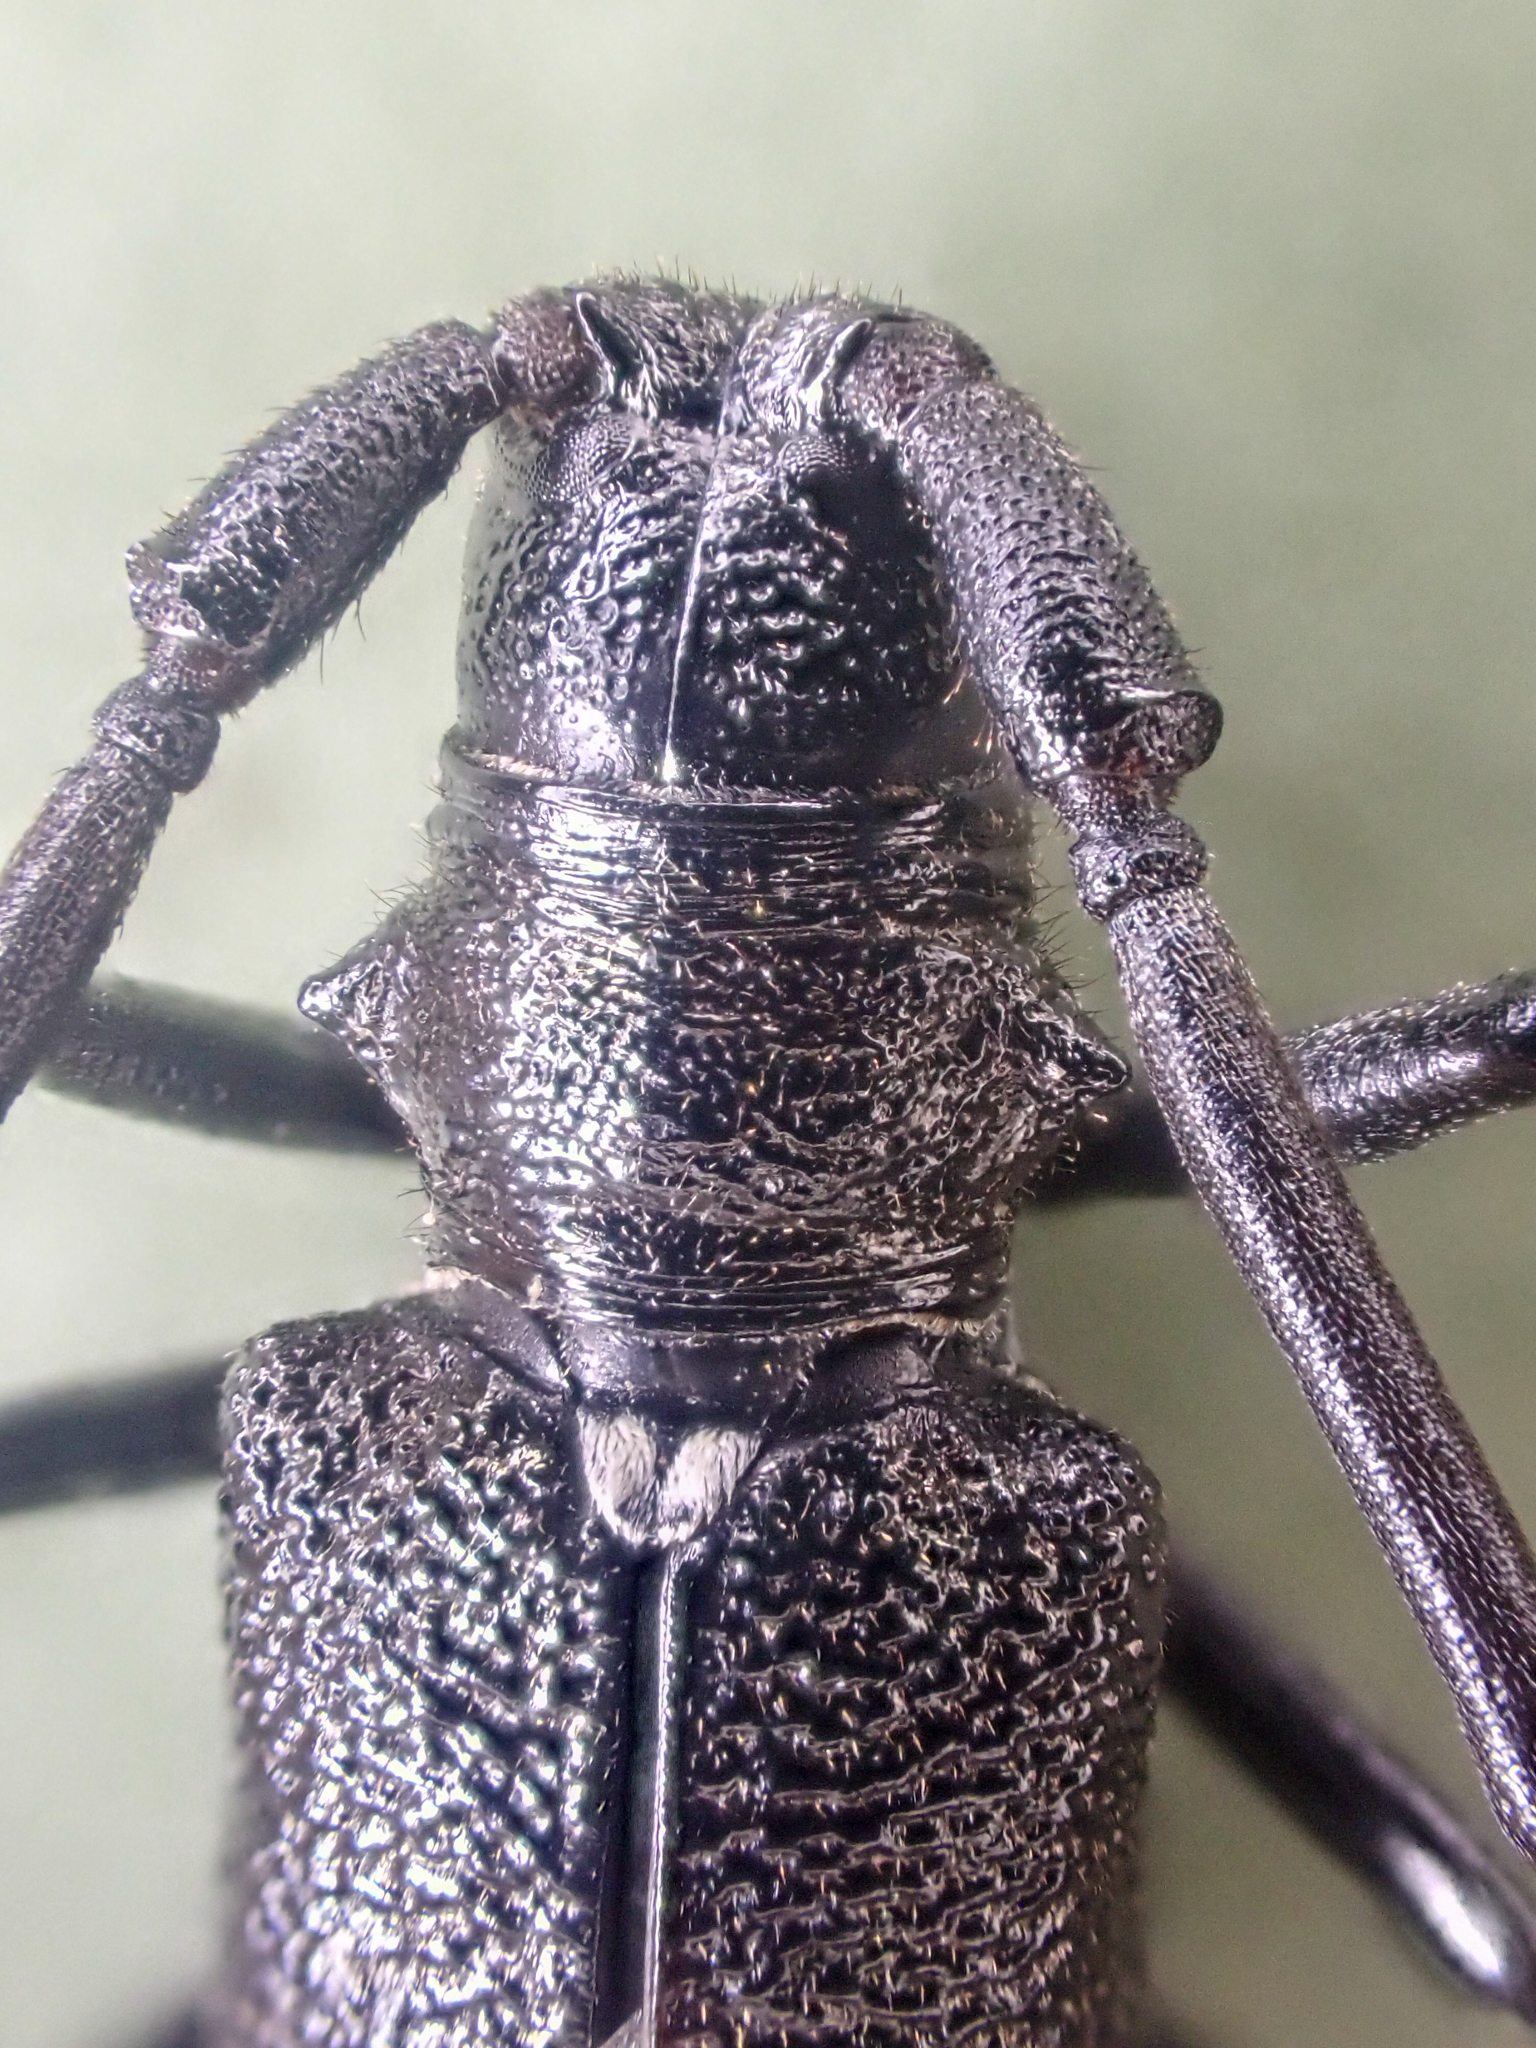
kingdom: Animalia
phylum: Arthropoda
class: Insecta
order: Coleoptera
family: Cerambycidae
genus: Monochamus
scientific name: Monochamus scutellatus
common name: White-spotted sawyer beetle
